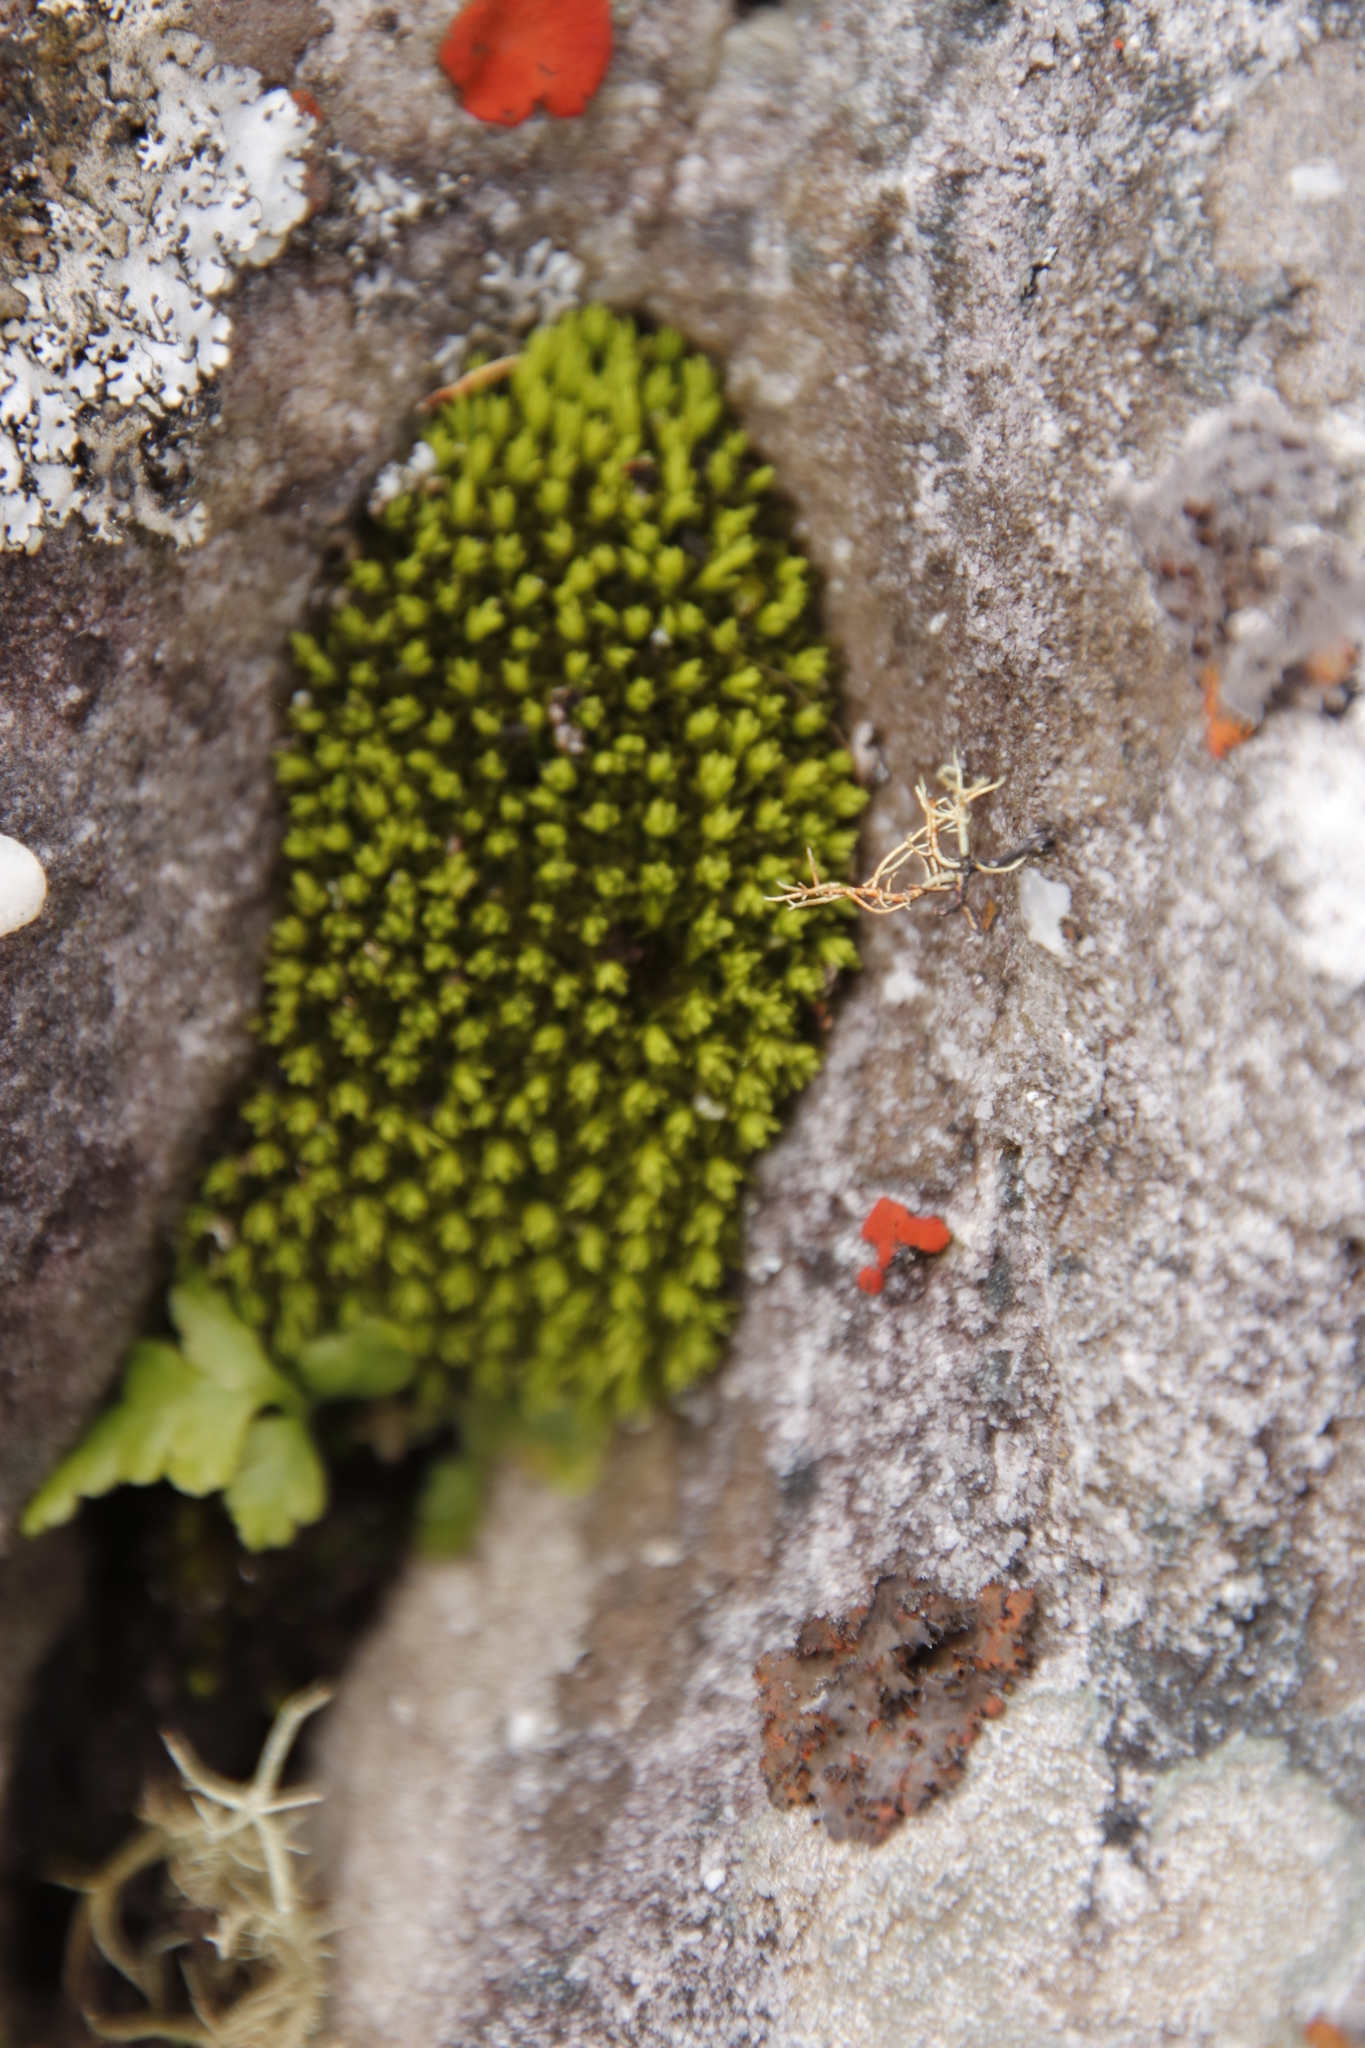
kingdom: Plantae
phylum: Bryophyta
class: Bryopsida
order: Dicranales
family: Hypodontiaceae
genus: Hypodontium
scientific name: Hypodontium pomiforme
